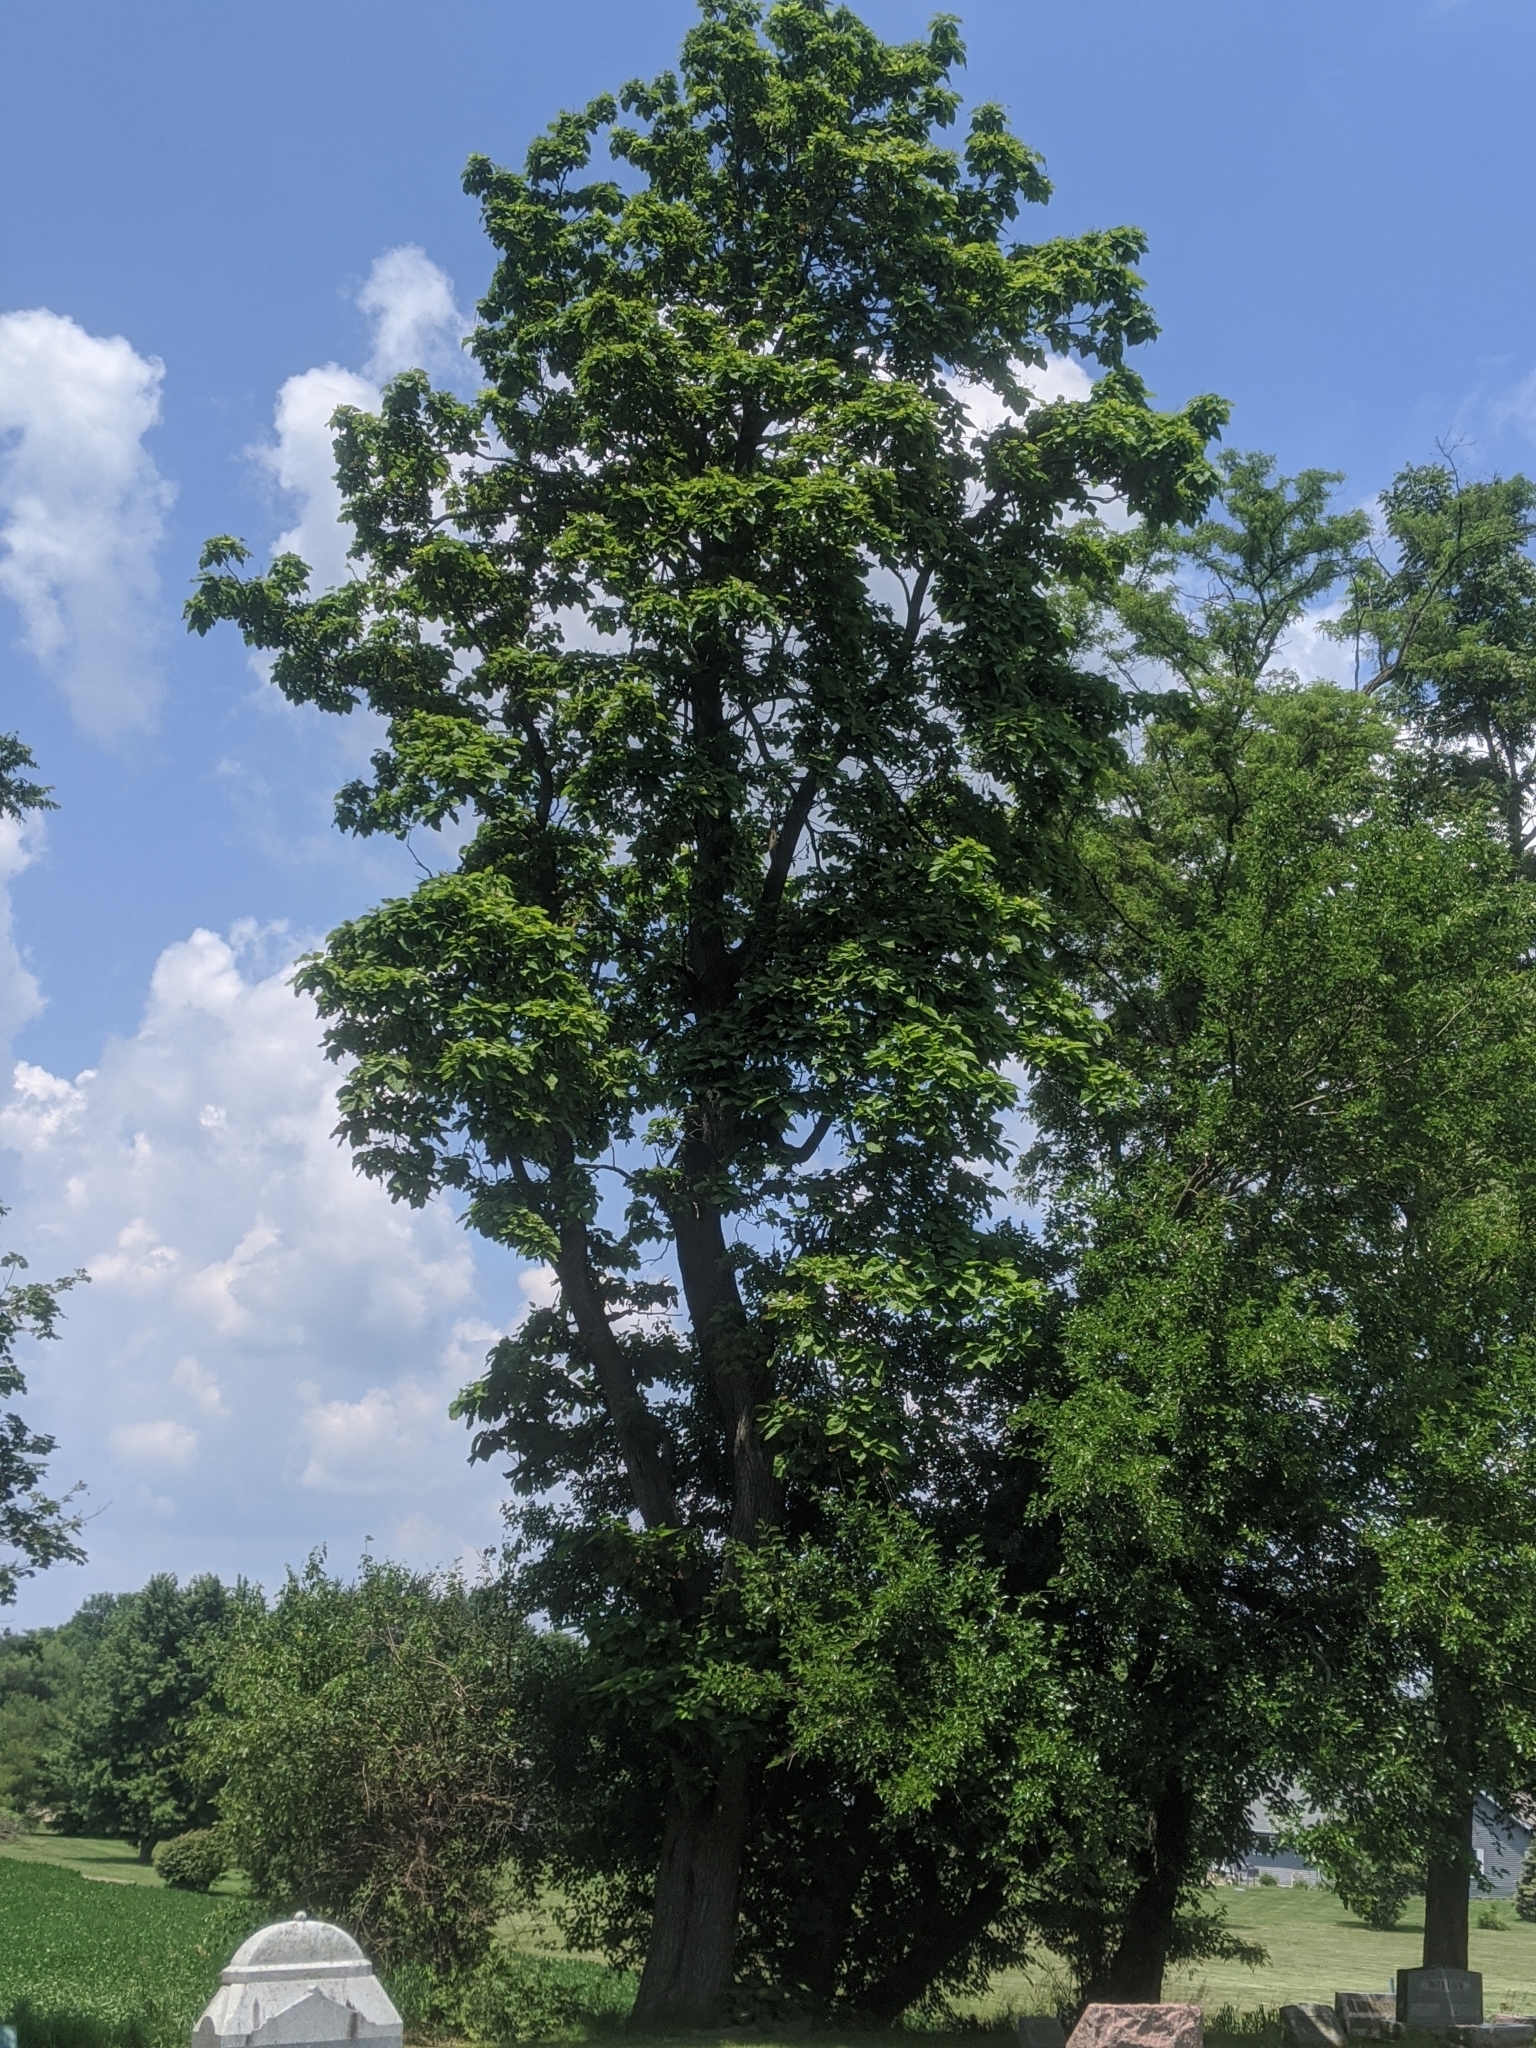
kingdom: Plantae
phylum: Tracheophyta
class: Magnoliopsida
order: Lamiales
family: Bignoniaceae
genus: Catalpa
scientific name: Catalpa bignonioides
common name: Southern catalpa
